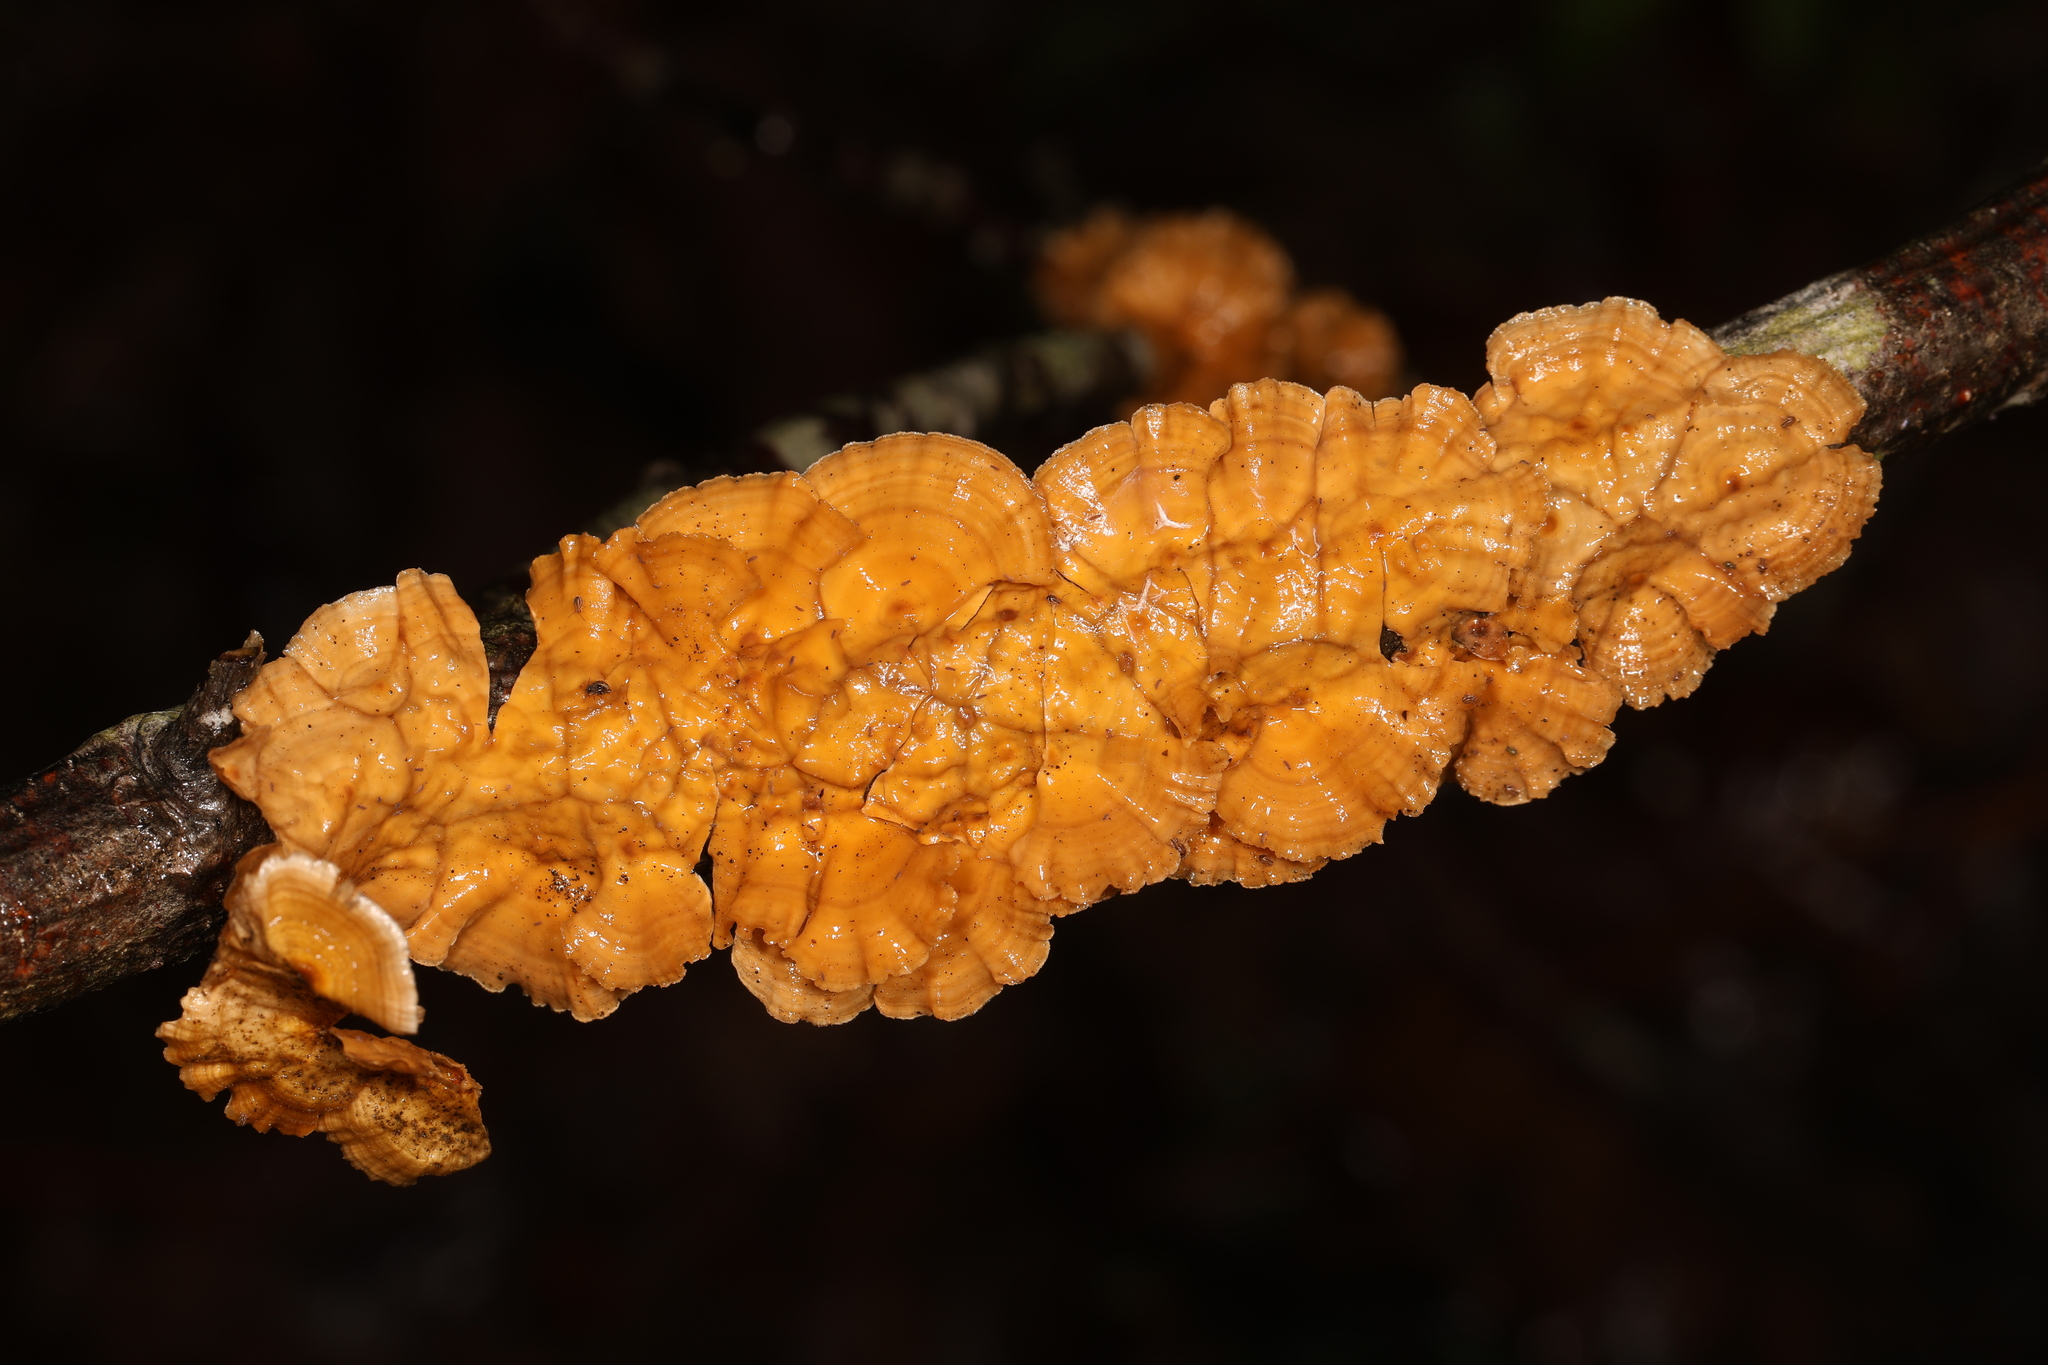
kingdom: Fungi
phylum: Basidiomycota
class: Agaricomycetes
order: Russulales
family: Stereaceae
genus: Stereum
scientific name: Stereum complicatum
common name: Crowded parchment
